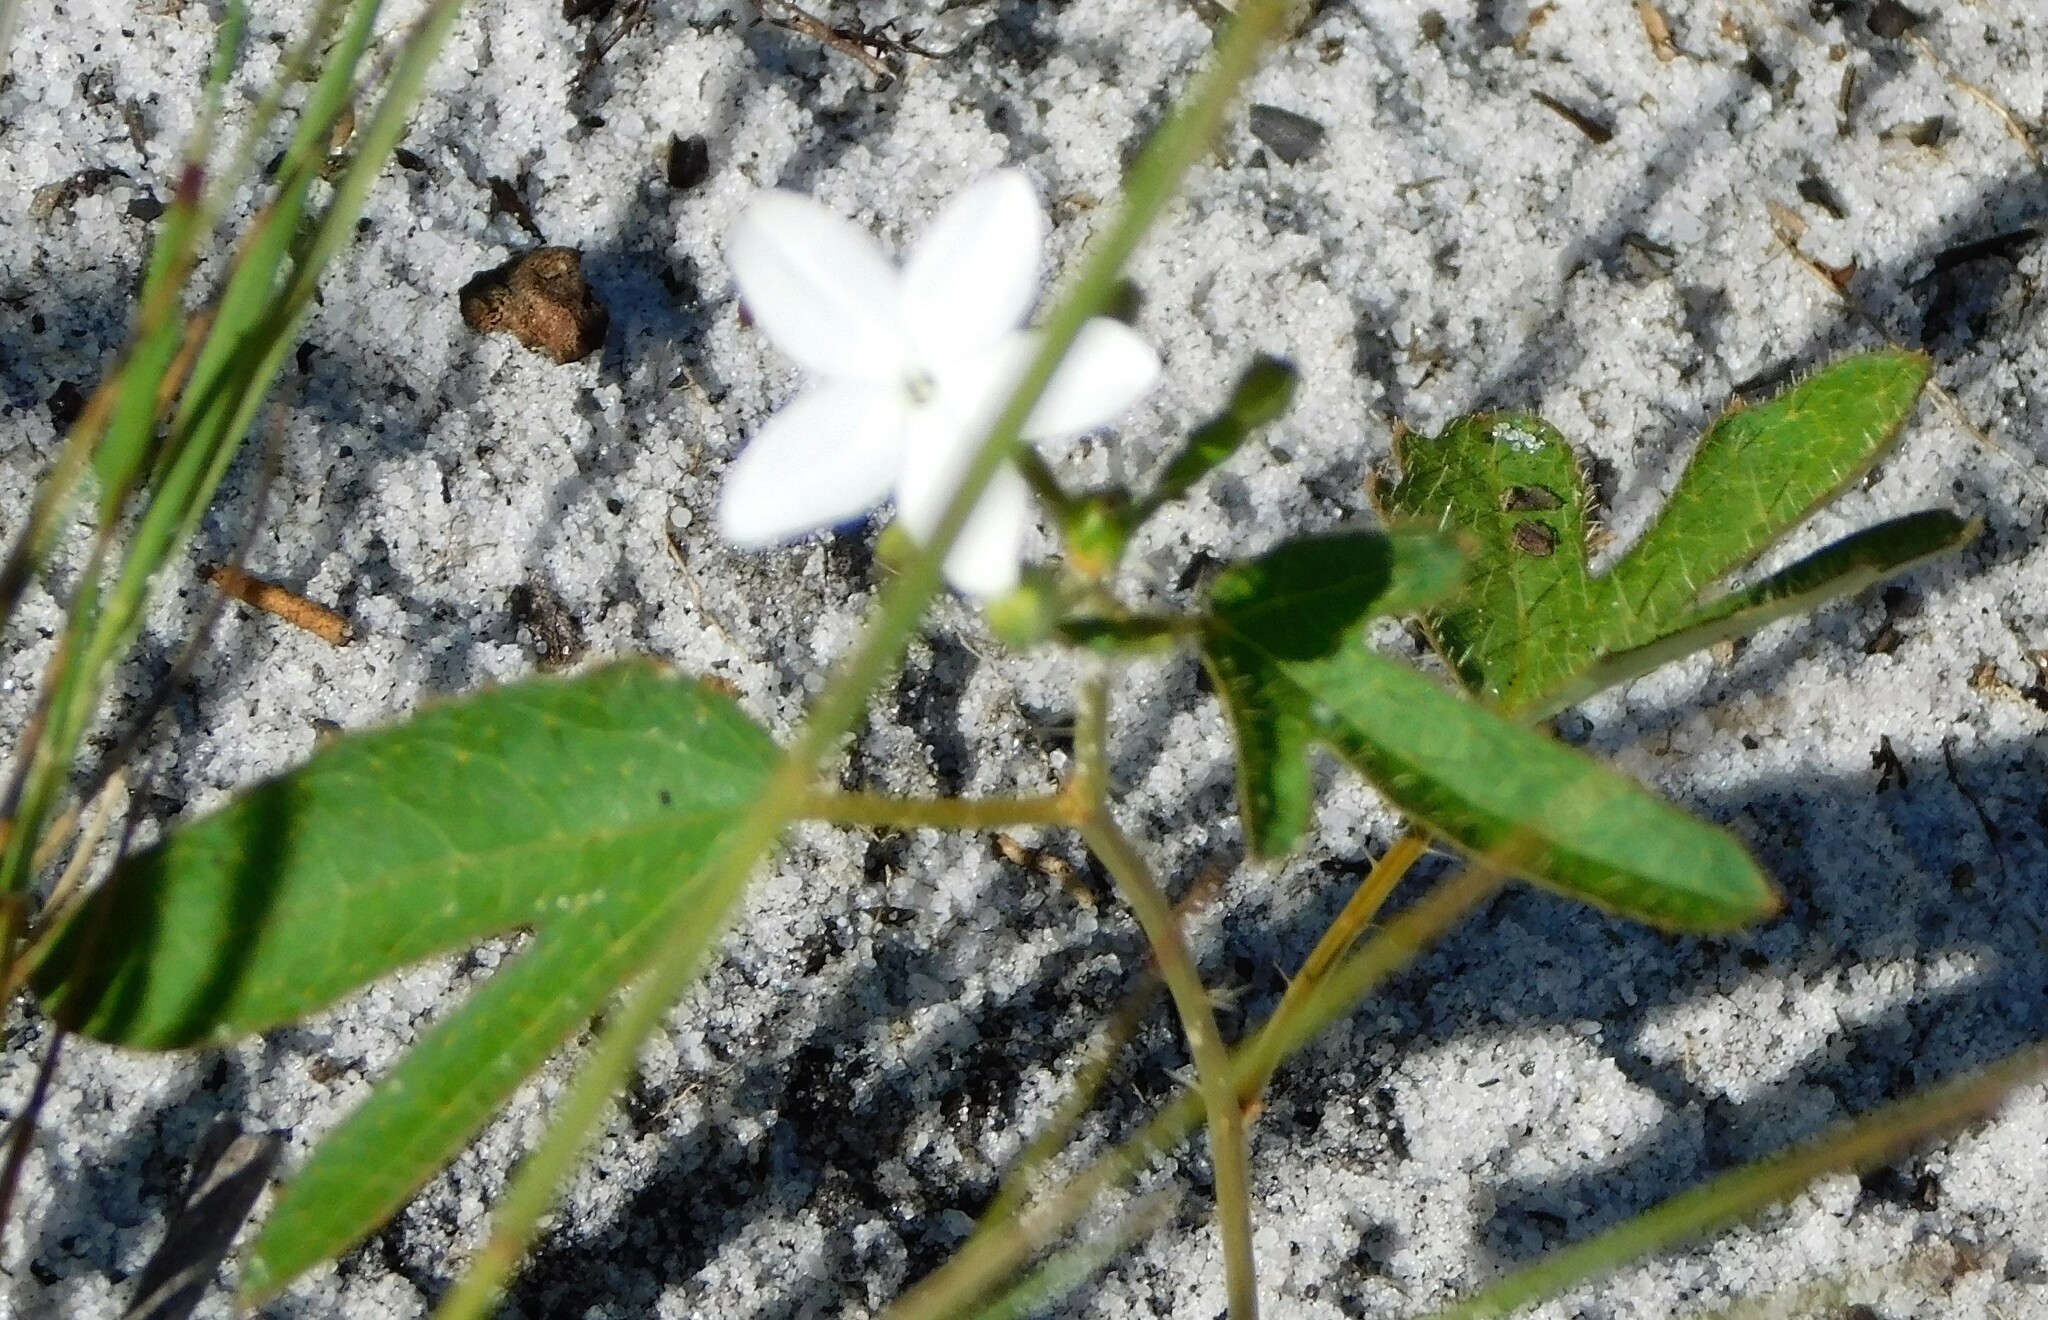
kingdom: Plantae
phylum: Tracheophyta
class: Magnoliopsida
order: Malpighiales
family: Euphorbiaceae
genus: Cnidoscolus
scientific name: Cnidoscolus stimulosus
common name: Bull-nettle
